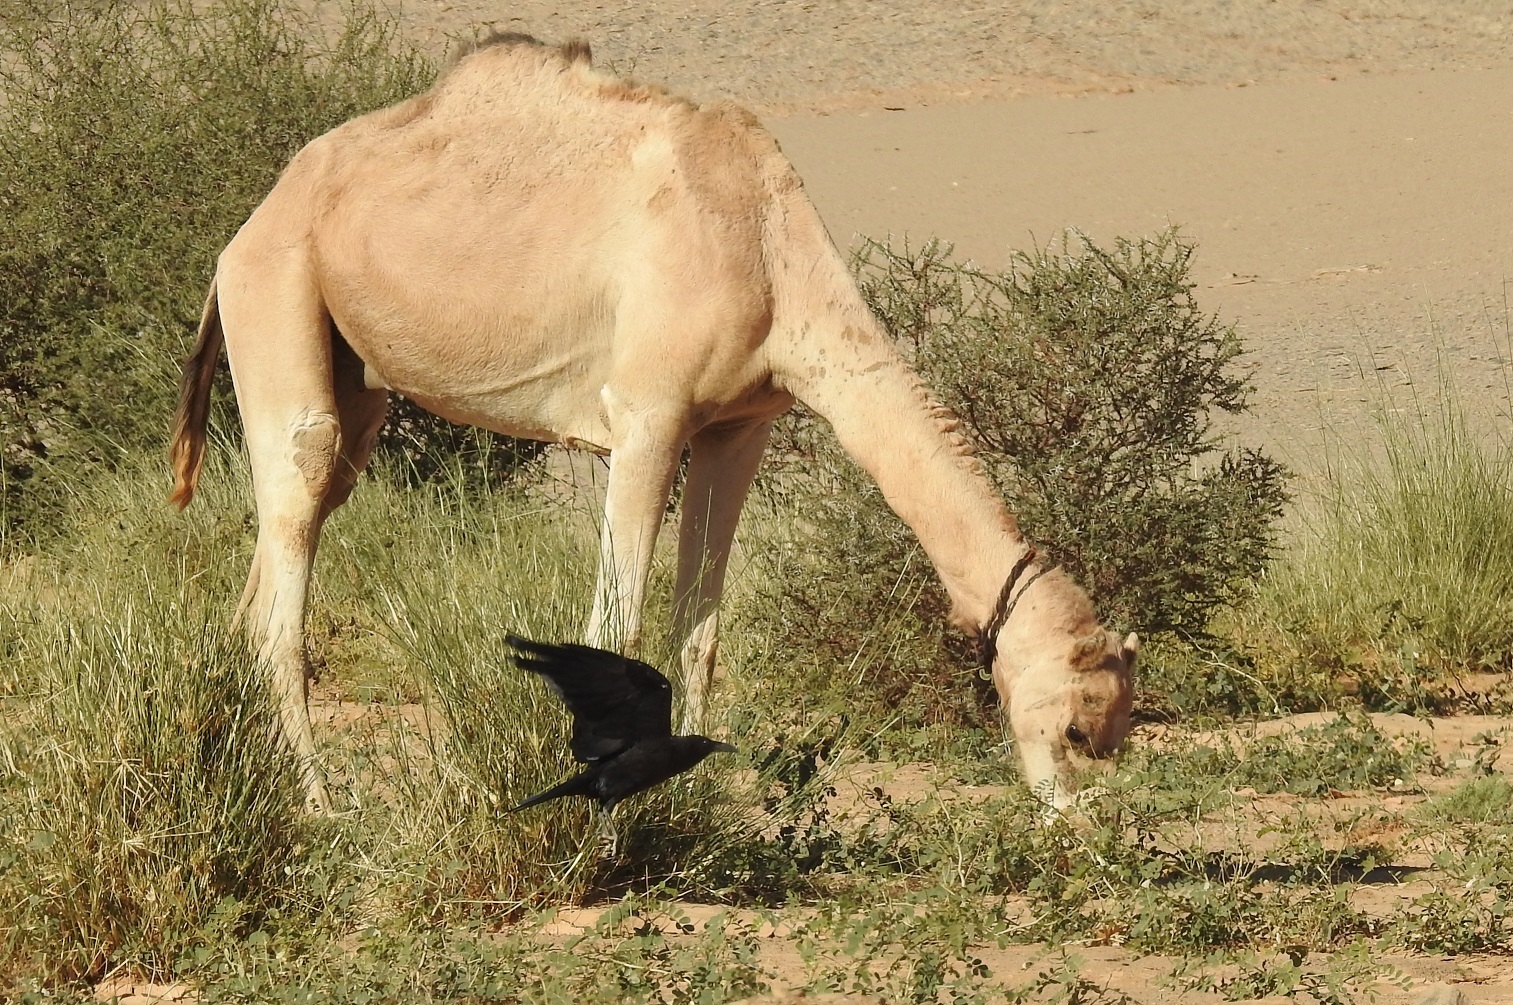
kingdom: Animalia
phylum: Chordata
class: Aves
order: Passeriformes
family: Corvidae
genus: Corvus
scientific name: Corvus ruficollis
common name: Brown-necked raven
